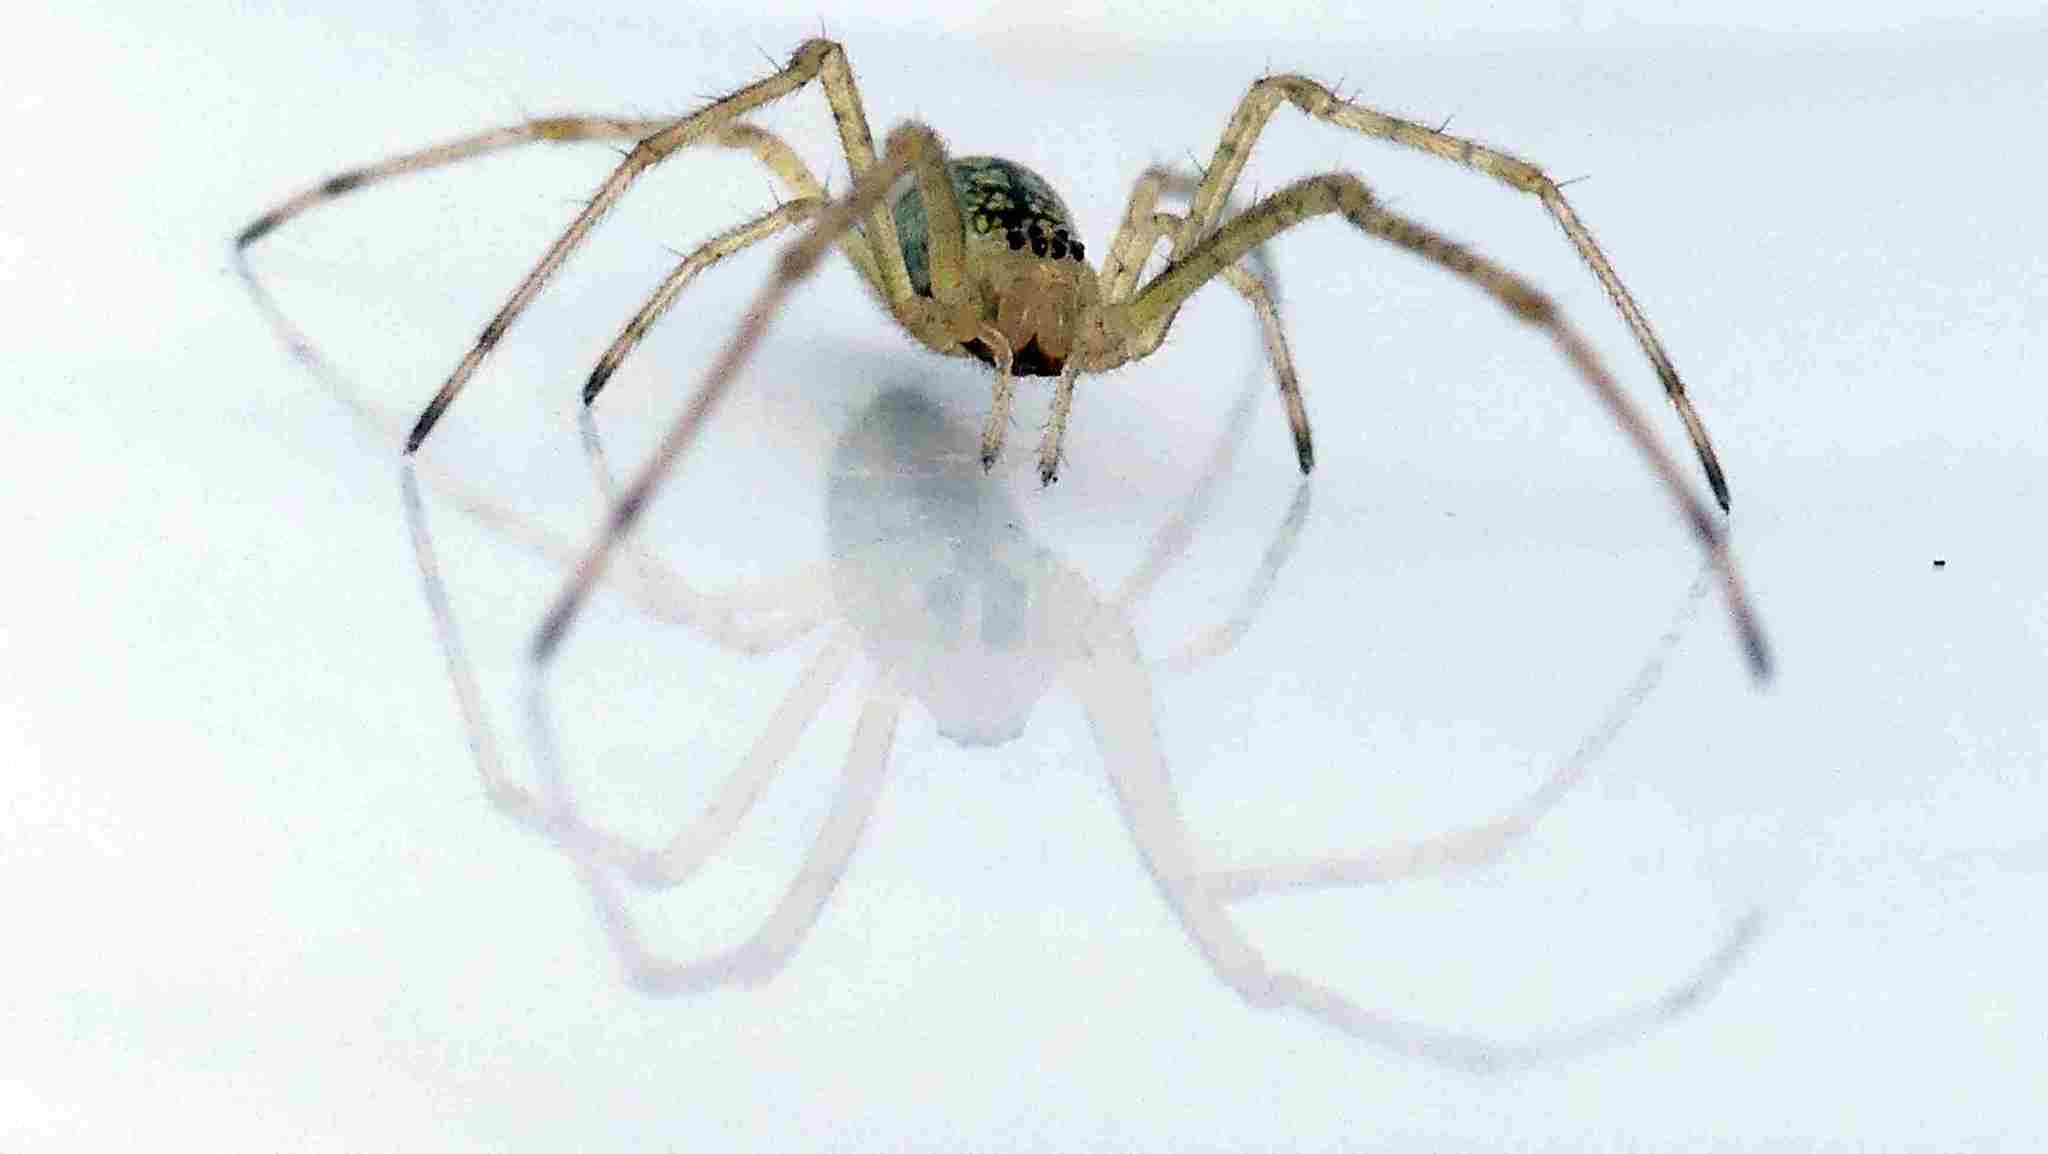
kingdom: Animalia
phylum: Arthropoda
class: Arachnida
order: Araneae
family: Tetragnathidae
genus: Tetragnatha
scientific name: Tetragnatha extensa
